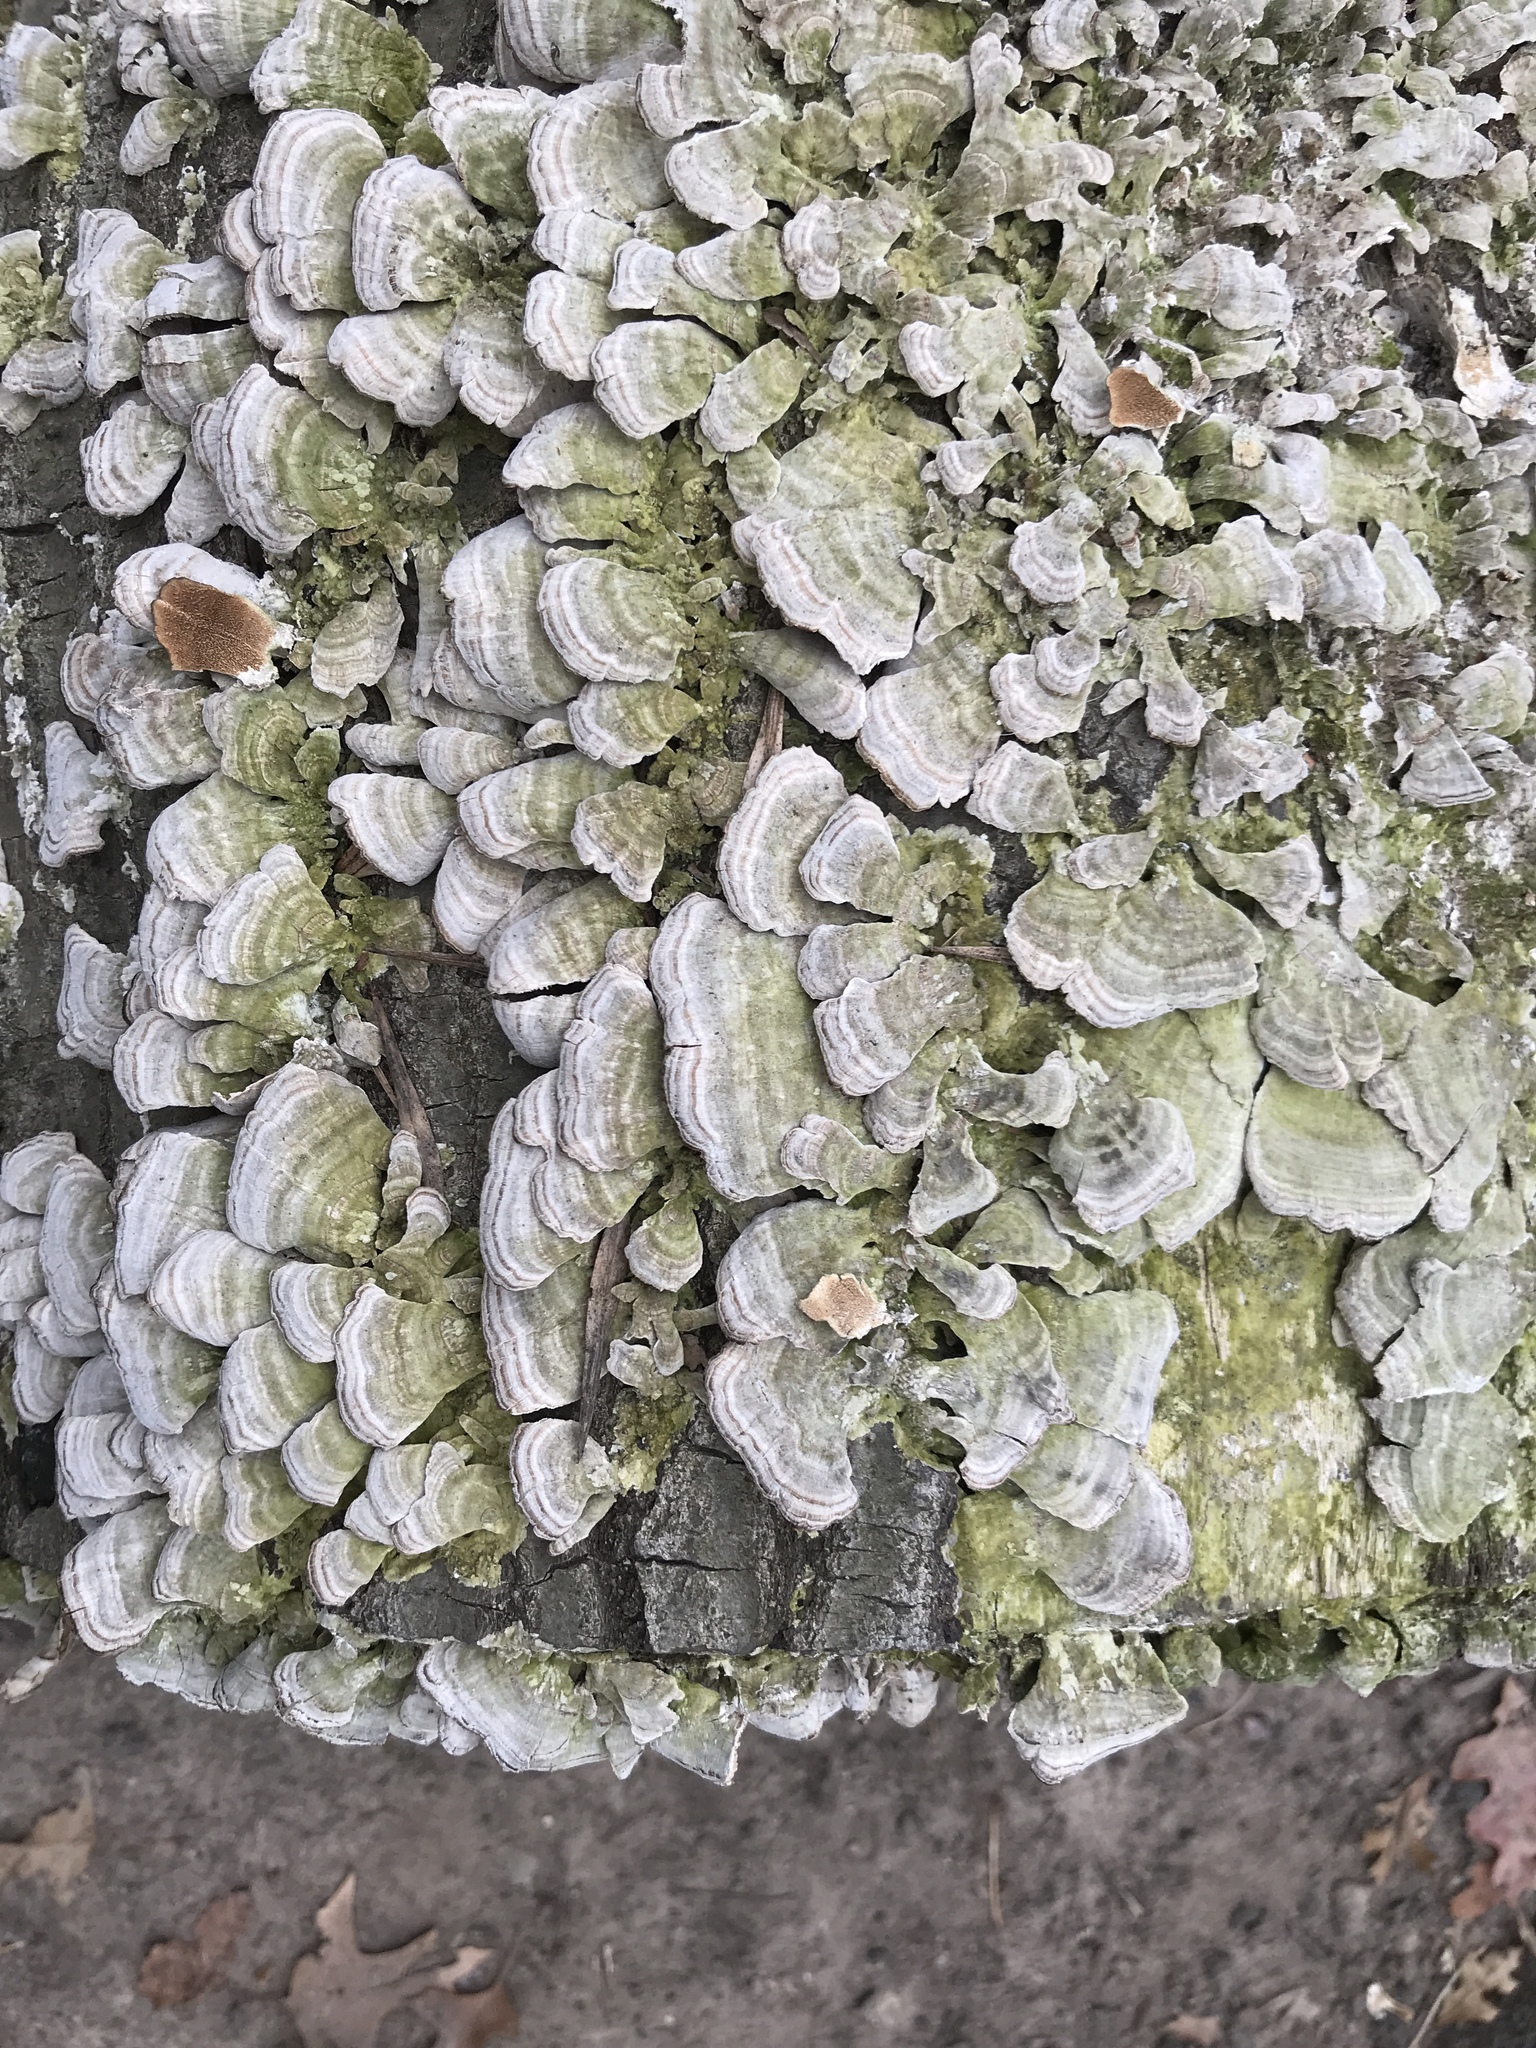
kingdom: Fungi
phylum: Basidiomycota
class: Agaricomycetes
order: Polyporales
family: Polyporaceae
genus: Trametes
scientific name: Trametes versicolor
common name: Turkeytail
